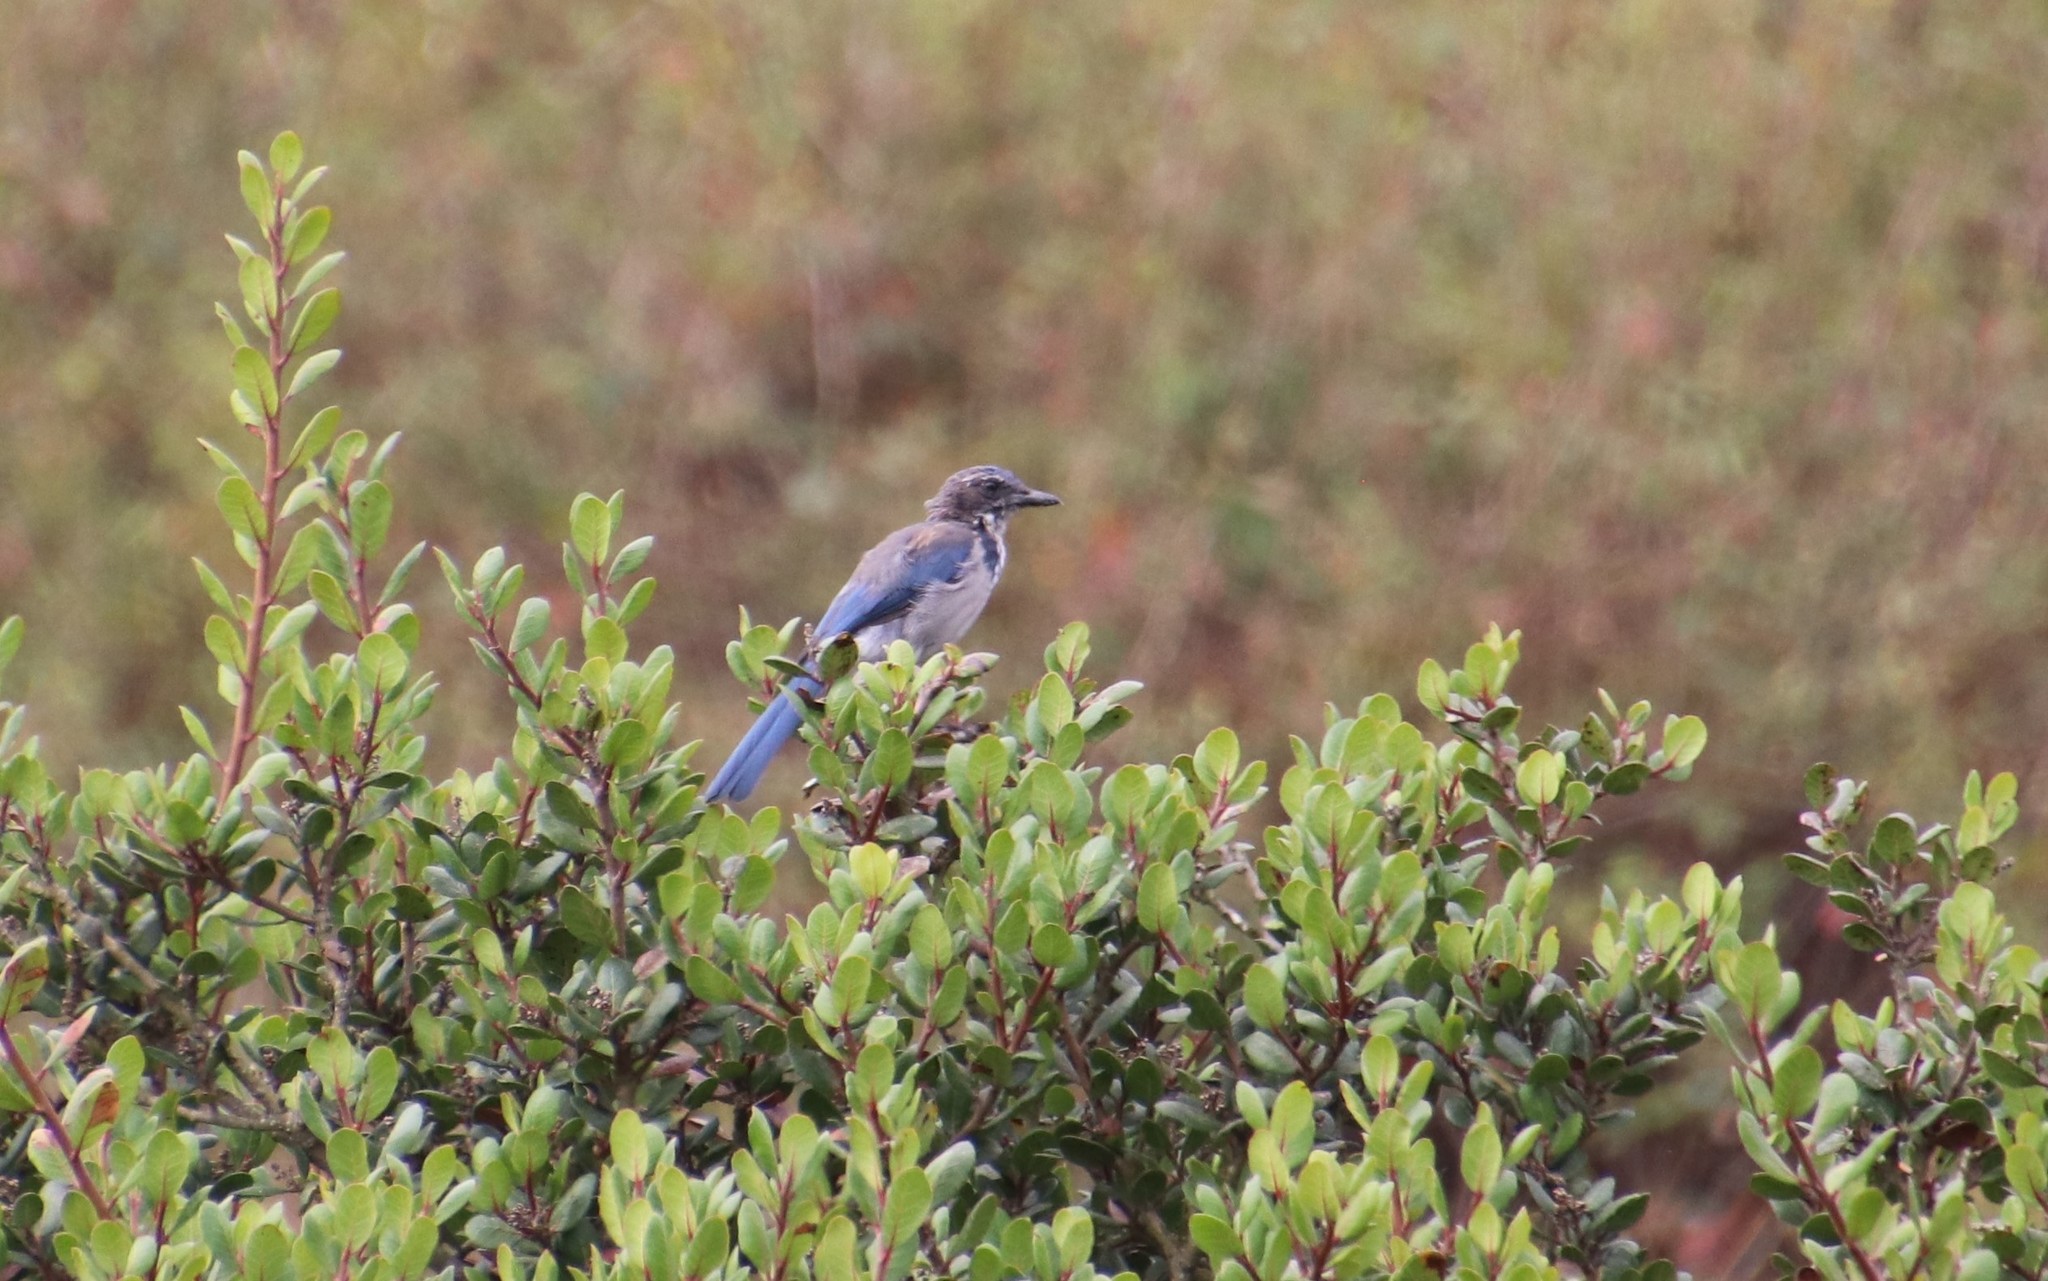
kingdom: Animalia
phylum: Chordata
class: Aves
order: Passeriformes
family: Corvidae
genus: Aphelocoma
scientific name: Aphelocoma californica
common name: California scrub-jay
